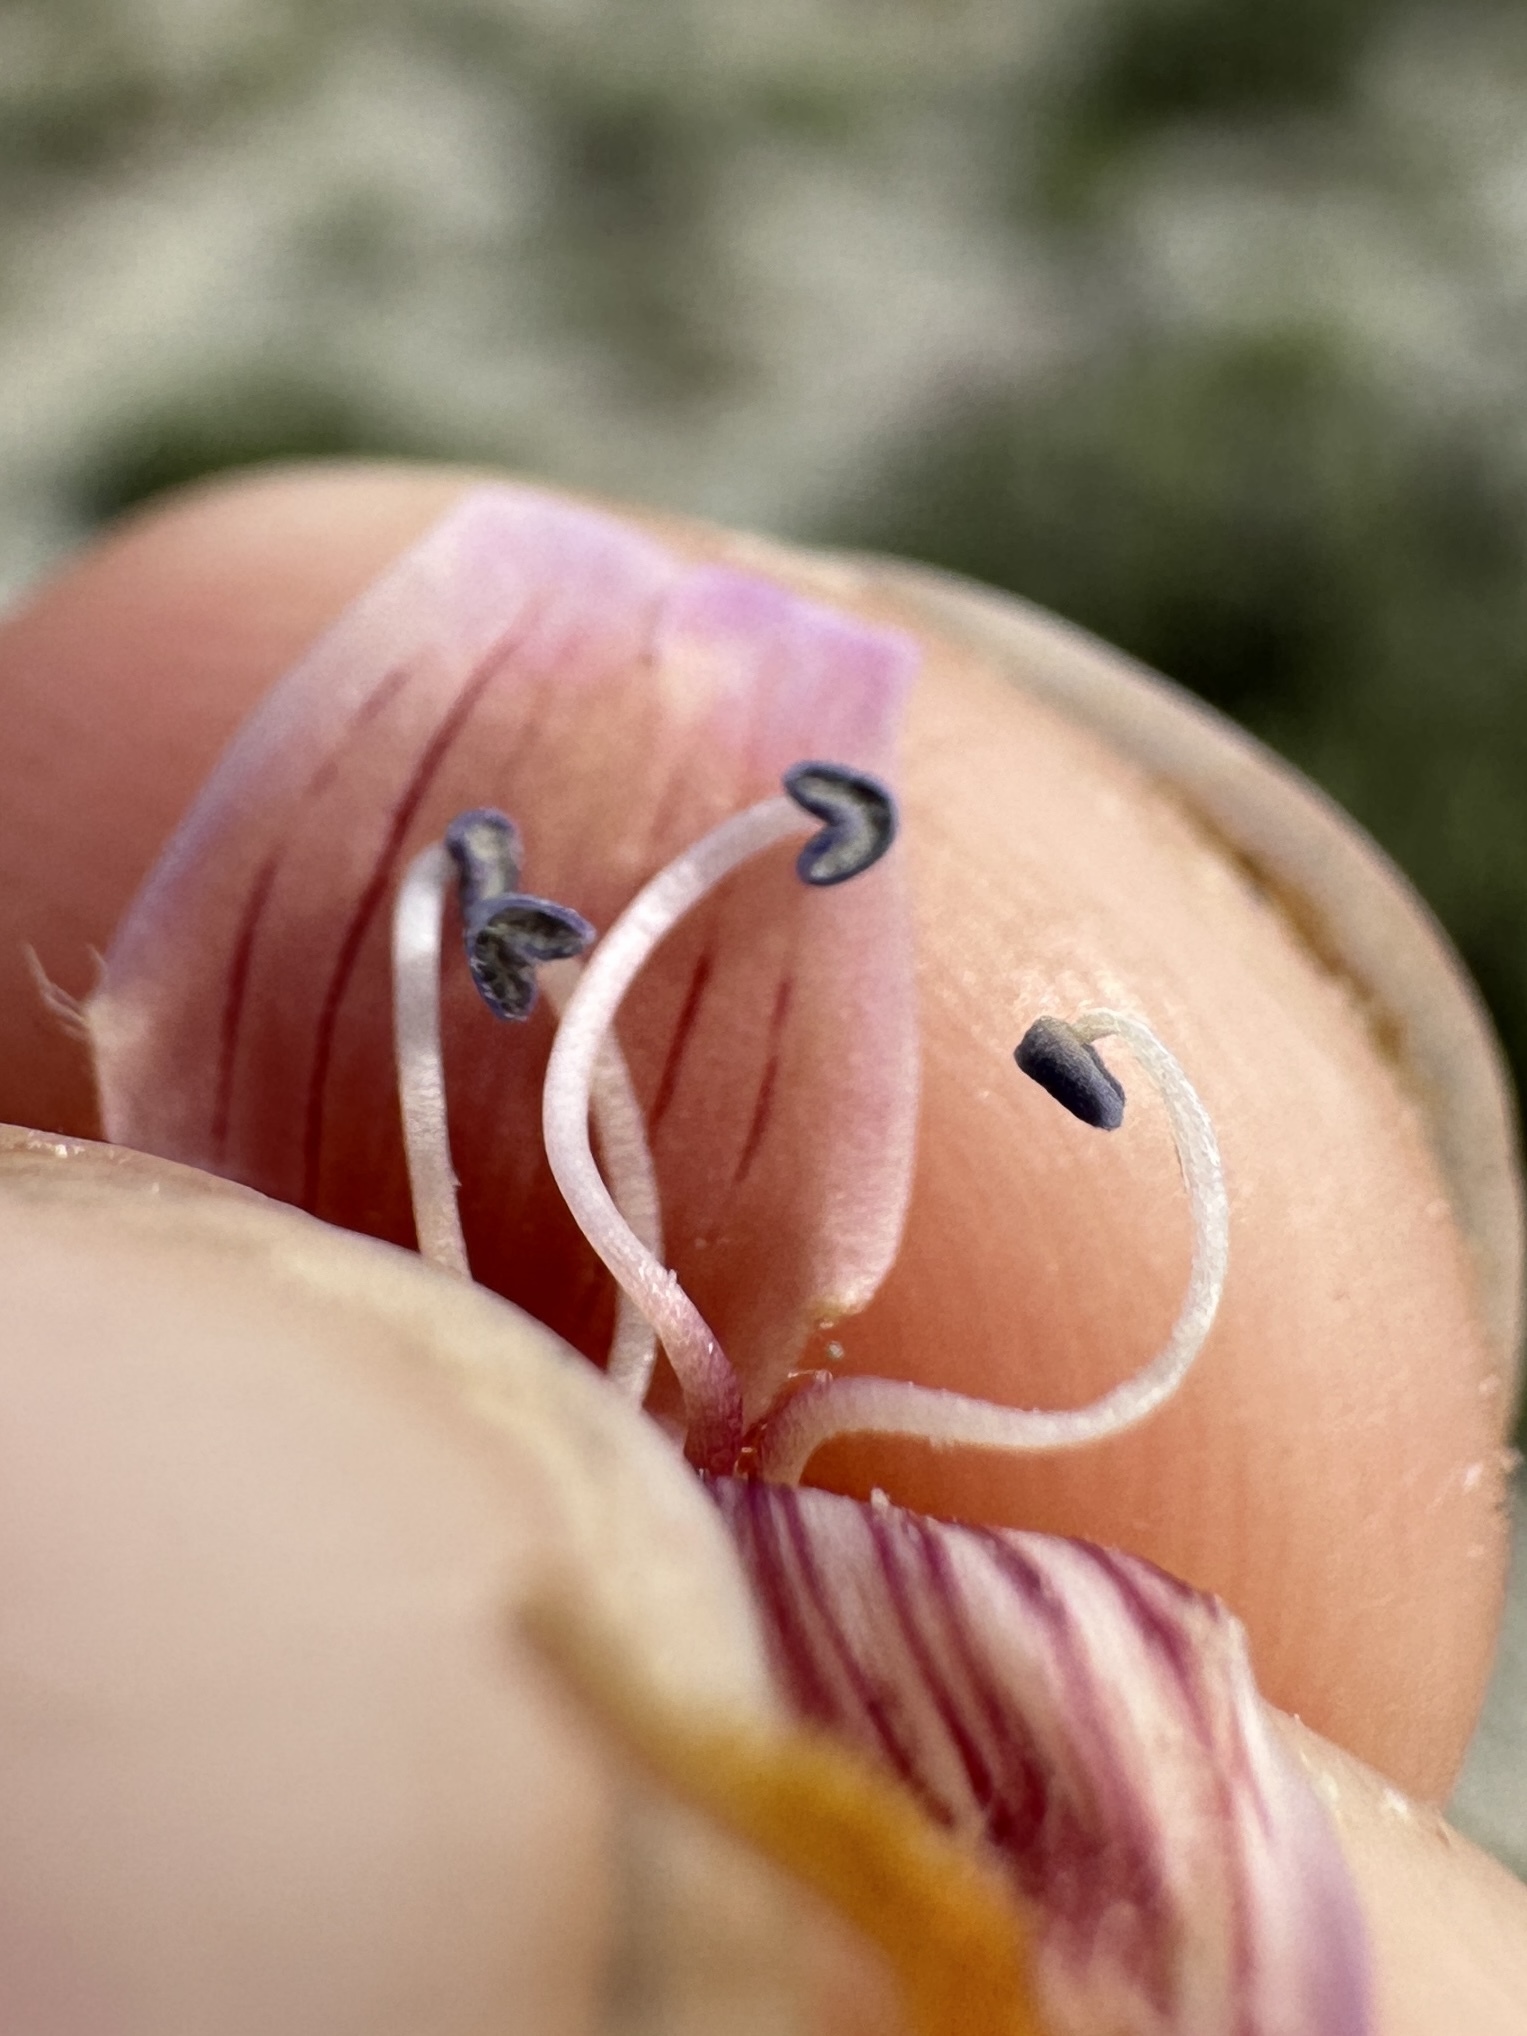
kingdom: Plantae
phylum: Tracheophyta
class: Magnoliopsida
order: Lamiales
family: Plantaginaceae
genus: Penstemon
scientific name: Penstemon barnebyi
